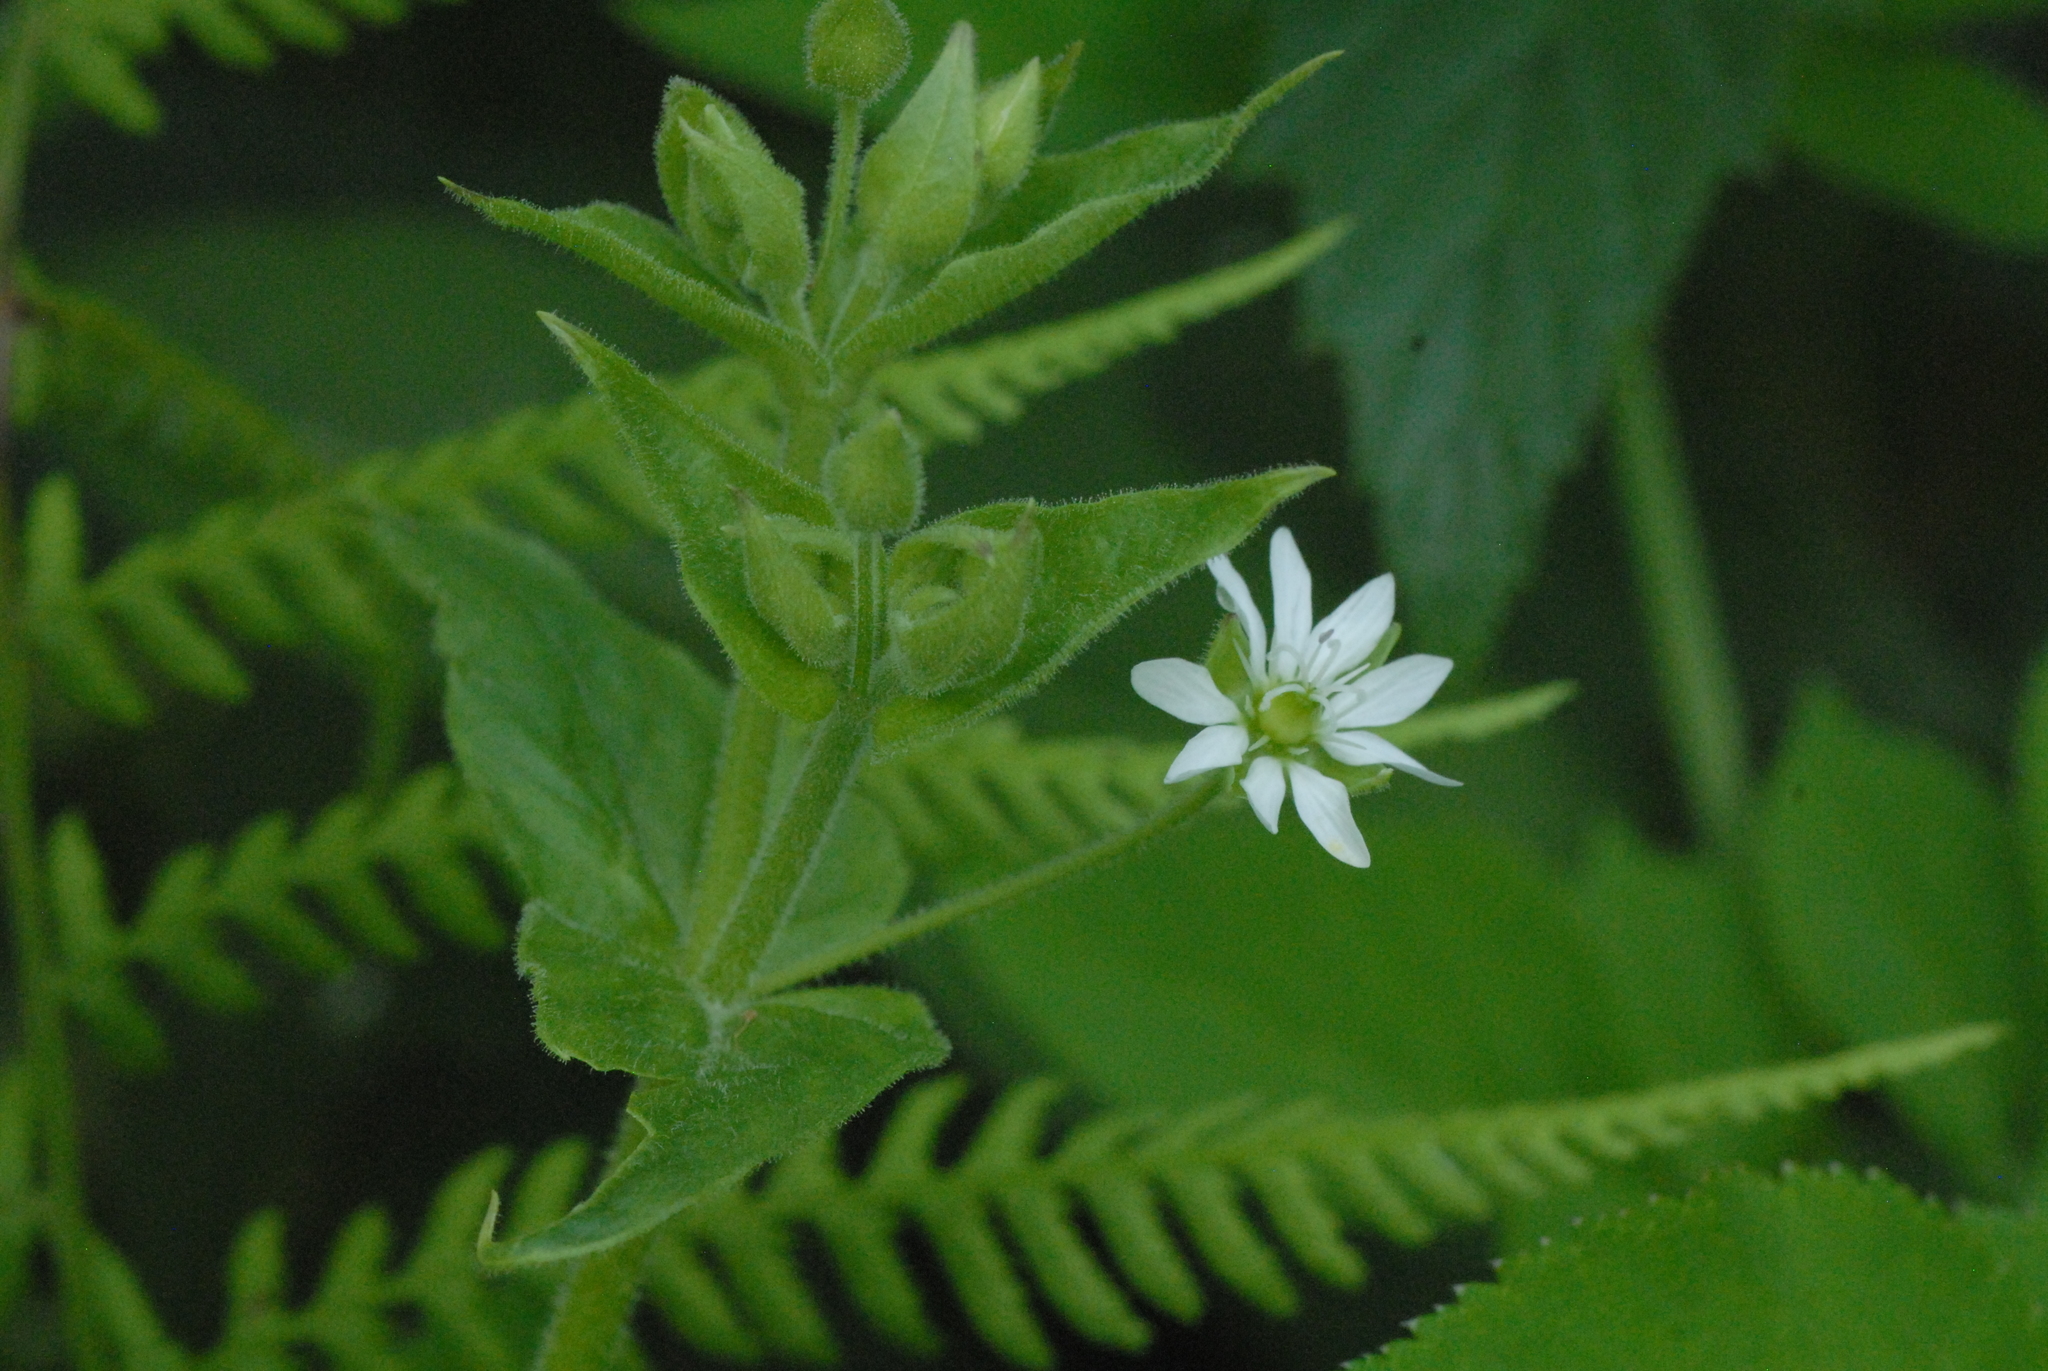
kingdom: Plantae
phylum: Tracheophyta
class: Magnoliopsida
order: Caryophyllales
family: Caryophyllaceae
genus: Stellaria
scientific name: Stellaria aquatica
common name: Water chickweed
